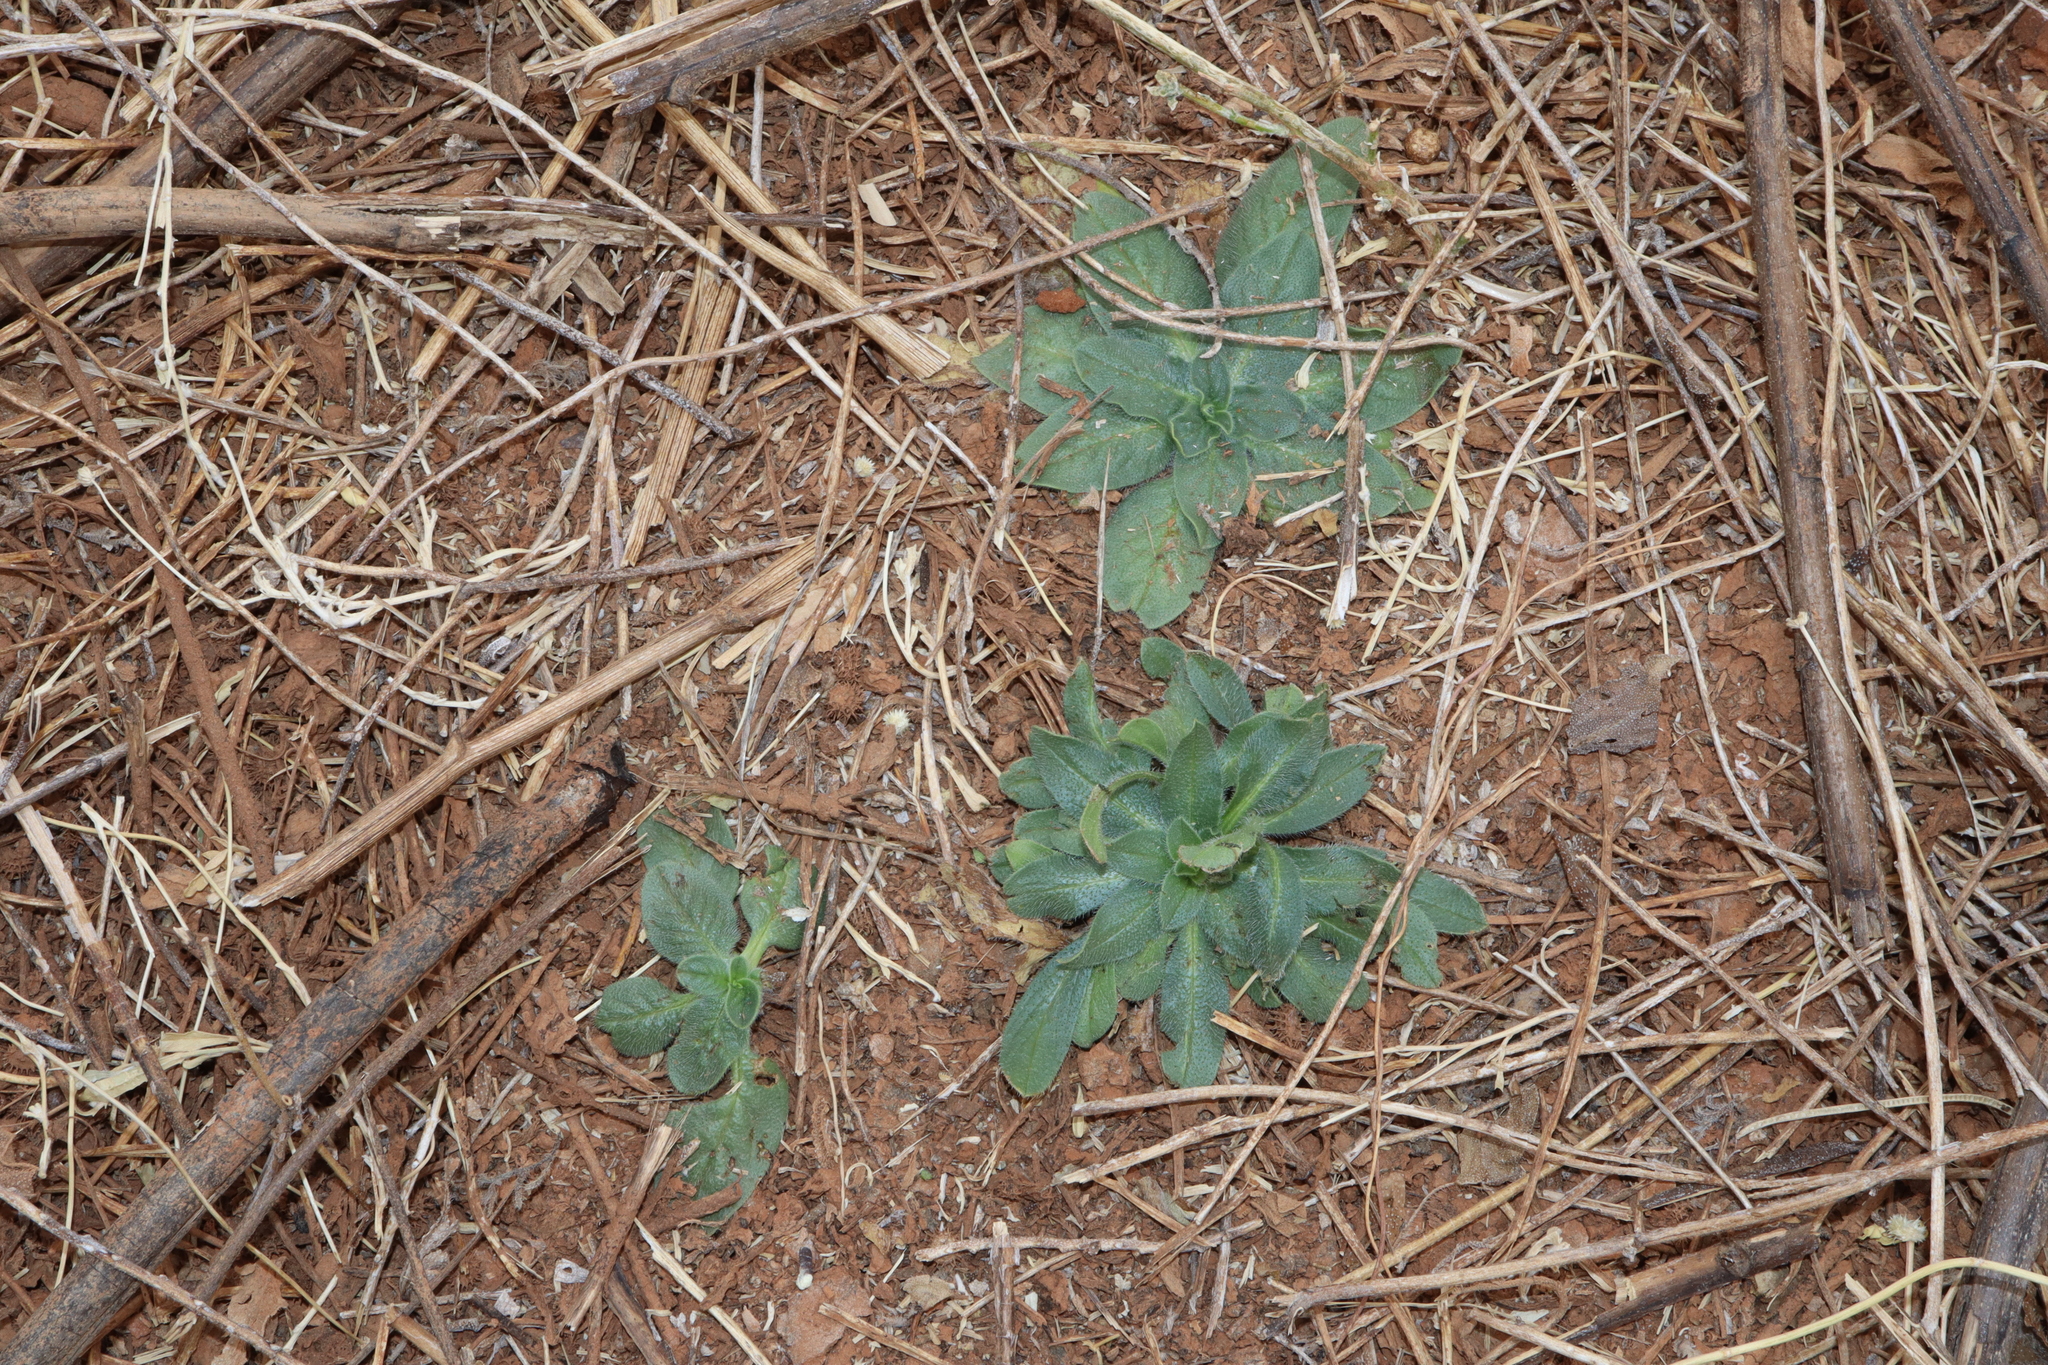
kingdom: Plantae
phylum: Tracheophyta
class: Magnoliopsida
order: Boraginales
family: Boraginaceae
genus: Echium
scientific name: Echium plantagineum
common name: Purple viper's-bugloss
